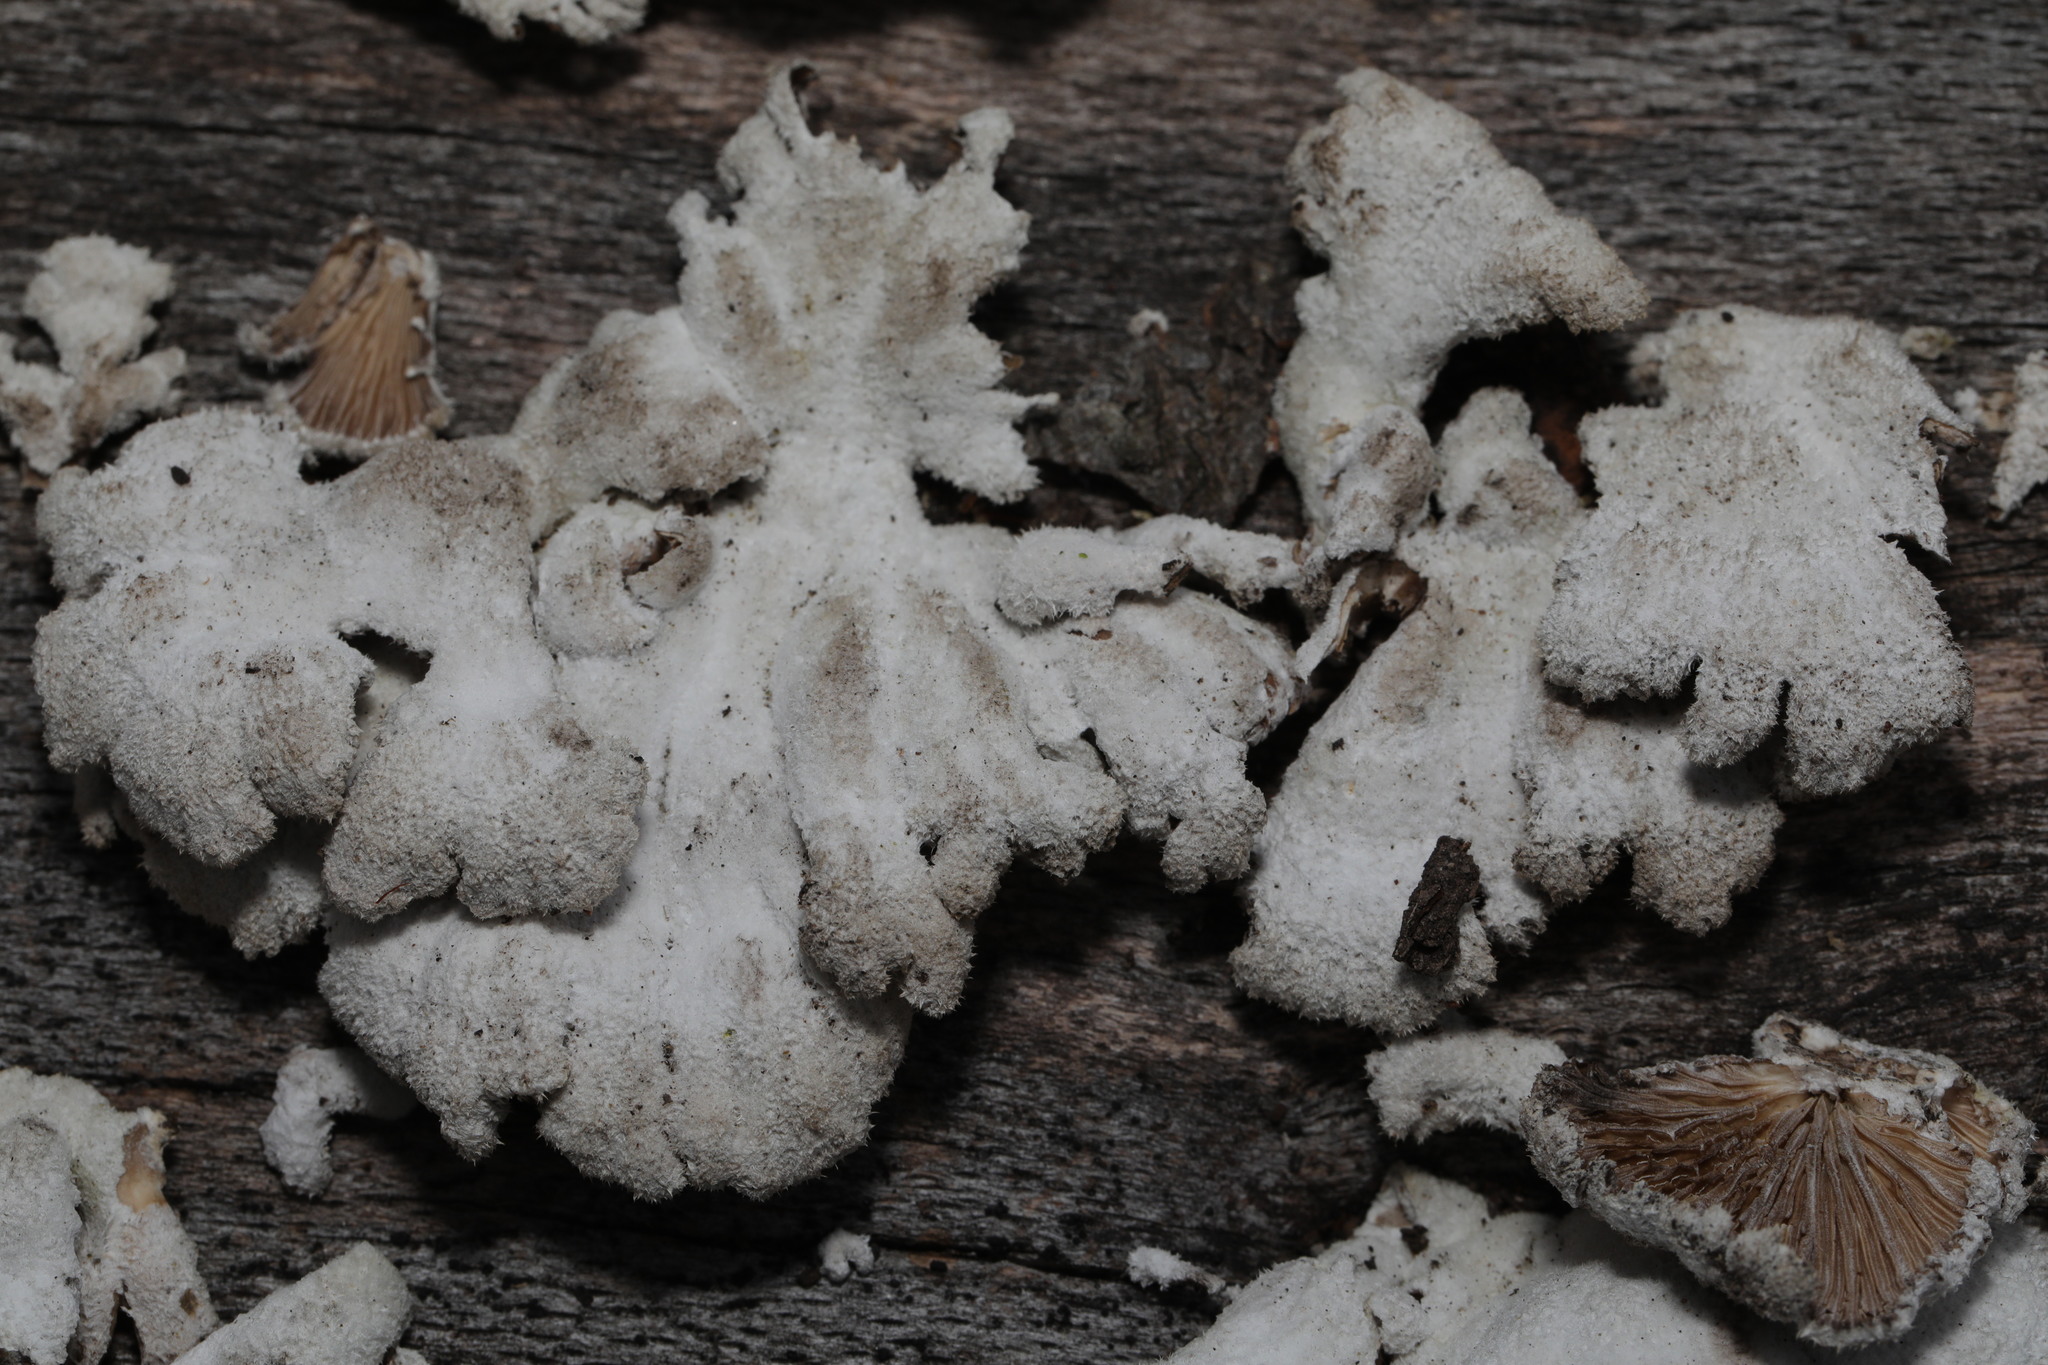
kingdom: Fungi
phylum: Basidiomycota
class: Agaricomycetes
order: Agaricales
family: Schizophyllaceae
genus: Schizophyllum
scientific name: Schizophyllum commune
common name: Common porecrust
